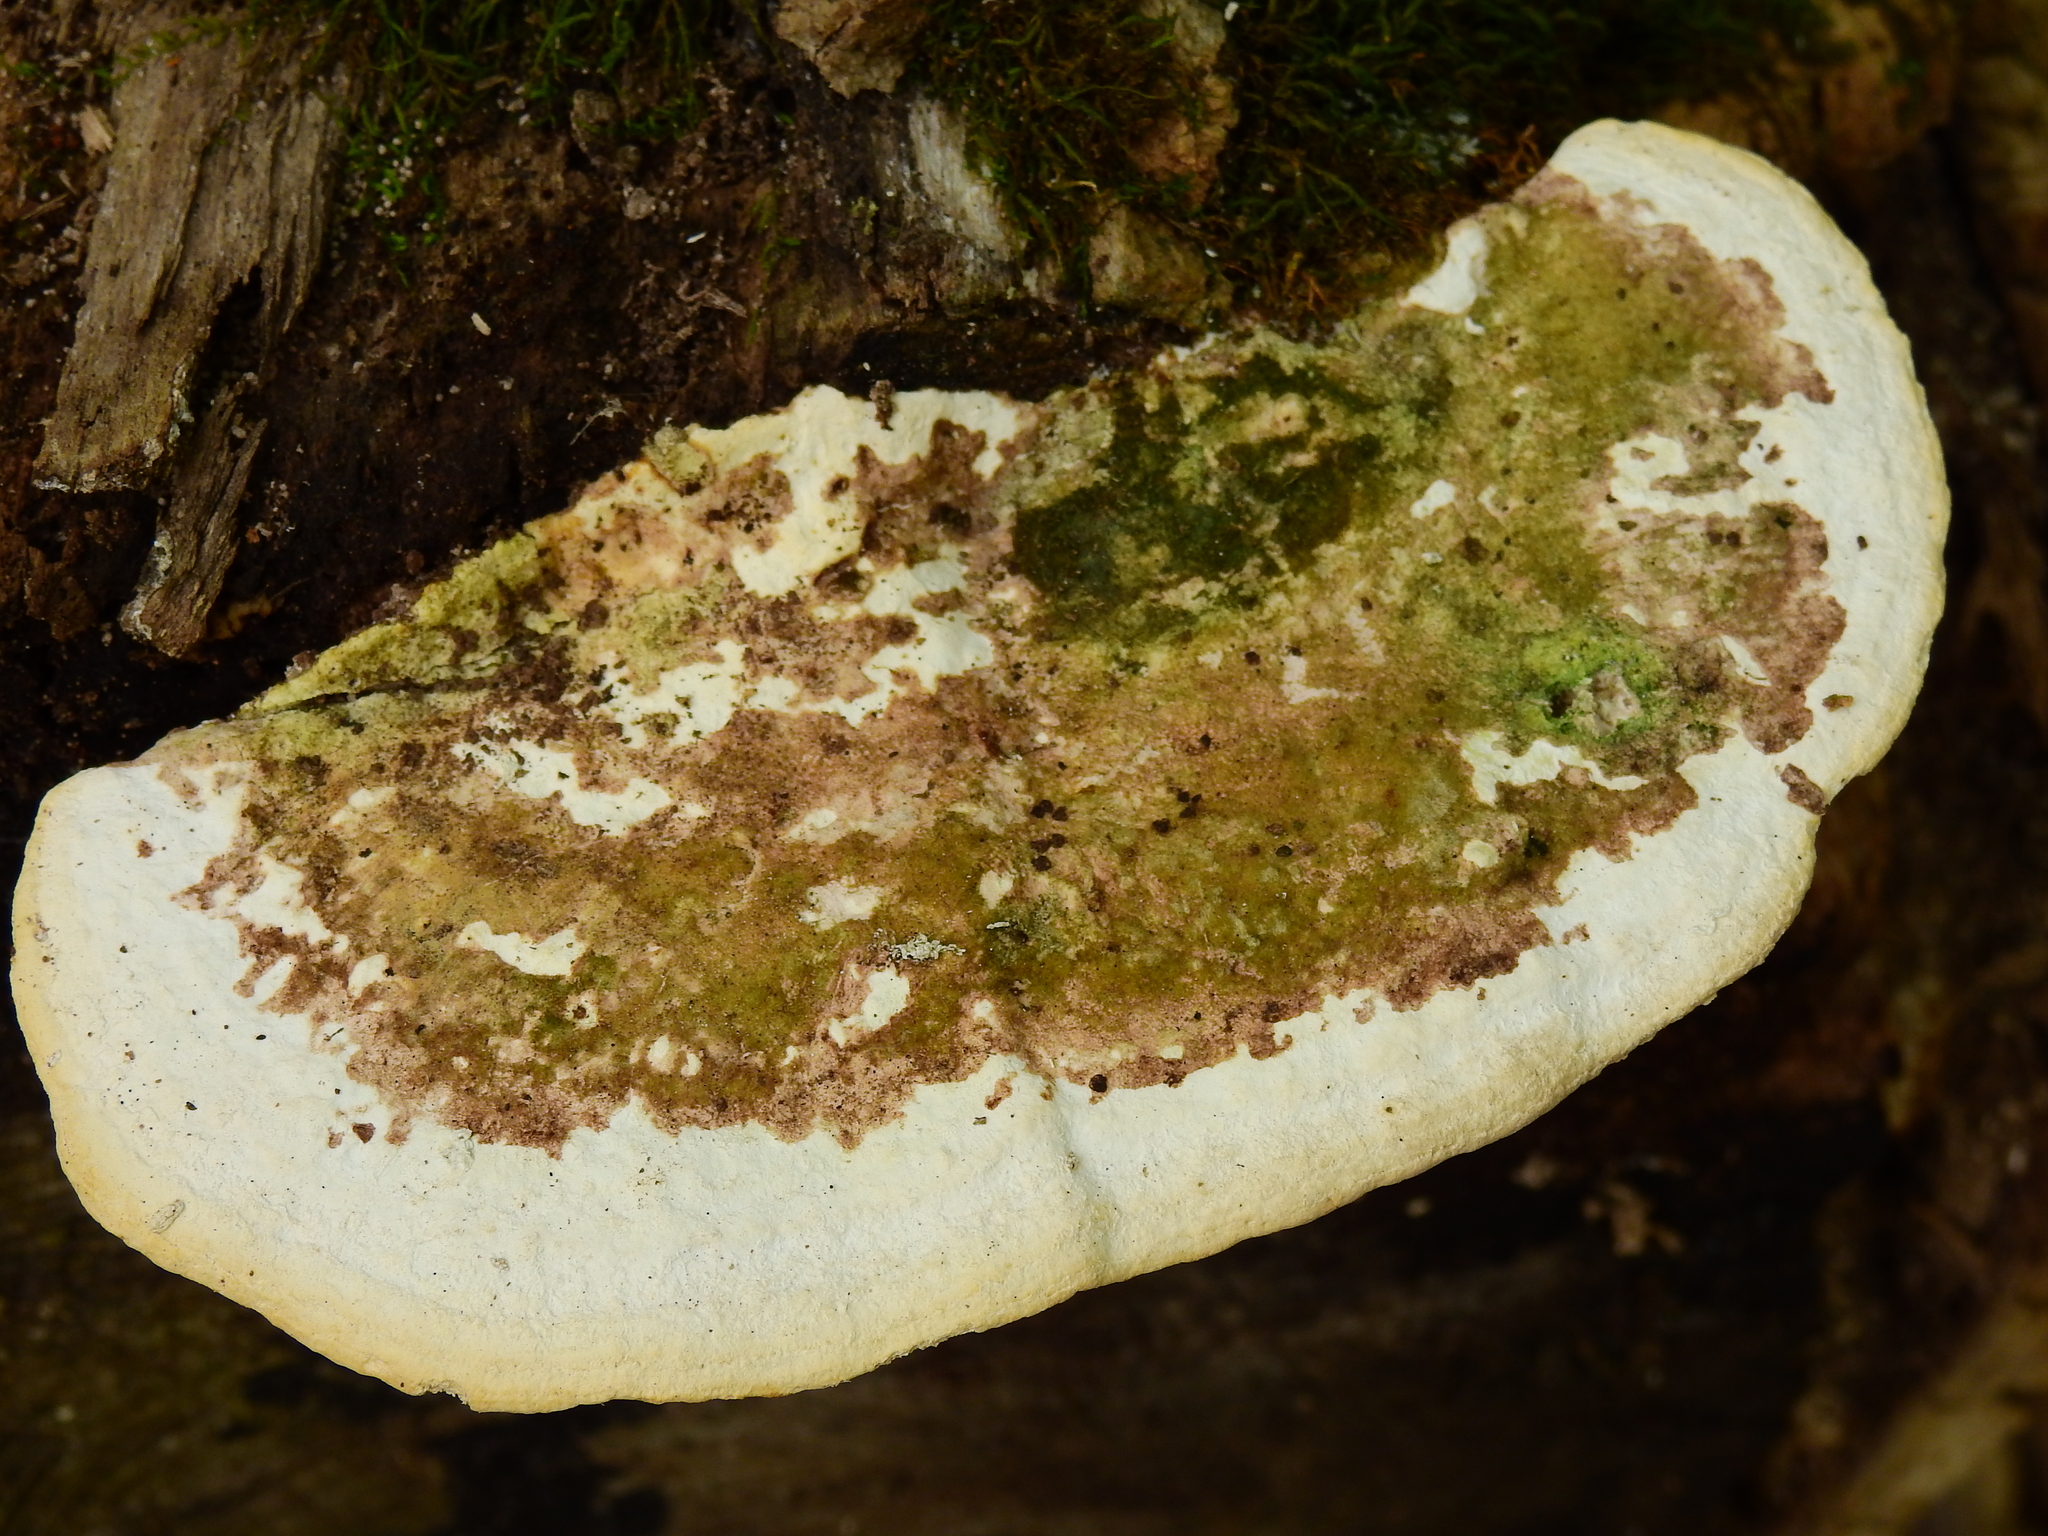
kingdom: Fungi
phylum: Basidiomycota
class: Agaricomycetes
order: Polyporales
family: Polyporaceae
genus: Trametes
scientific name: Trametes gibbosa
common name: Lumpy bracket
